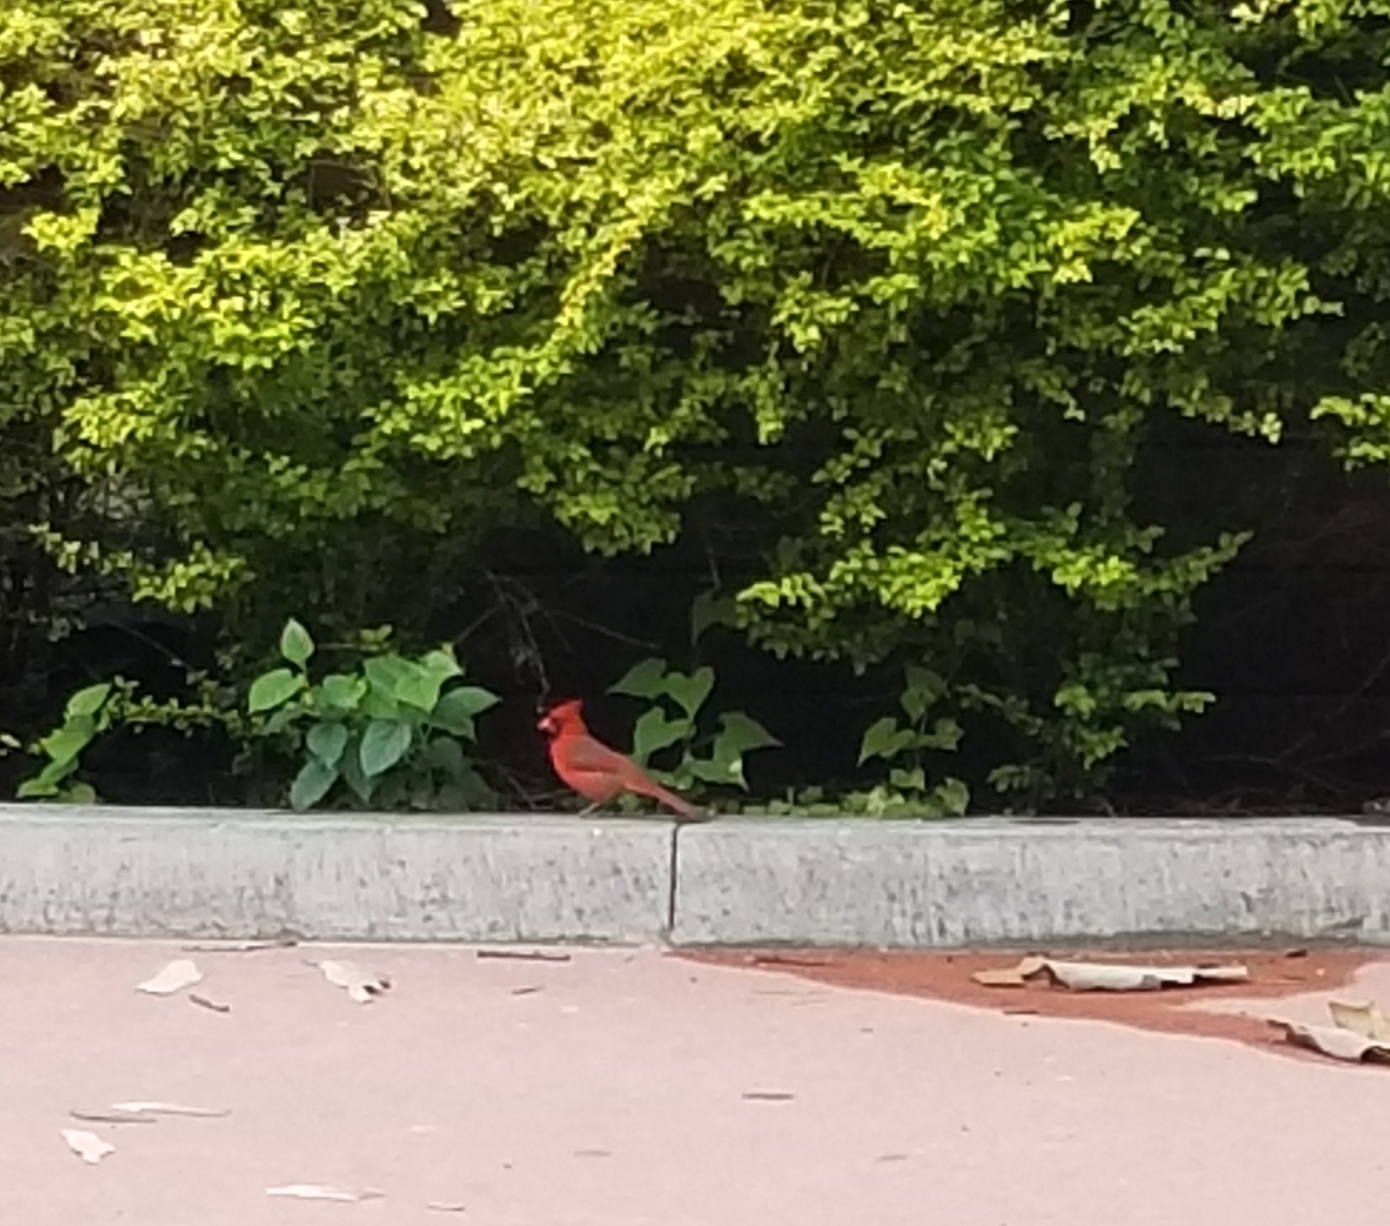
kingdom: Animalia
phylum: Chordata
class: Aves
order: Passeriformes
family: Cardinalidae
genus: Cardinalis
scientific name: Cardinalis cardinalis
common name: Northern cardinal
